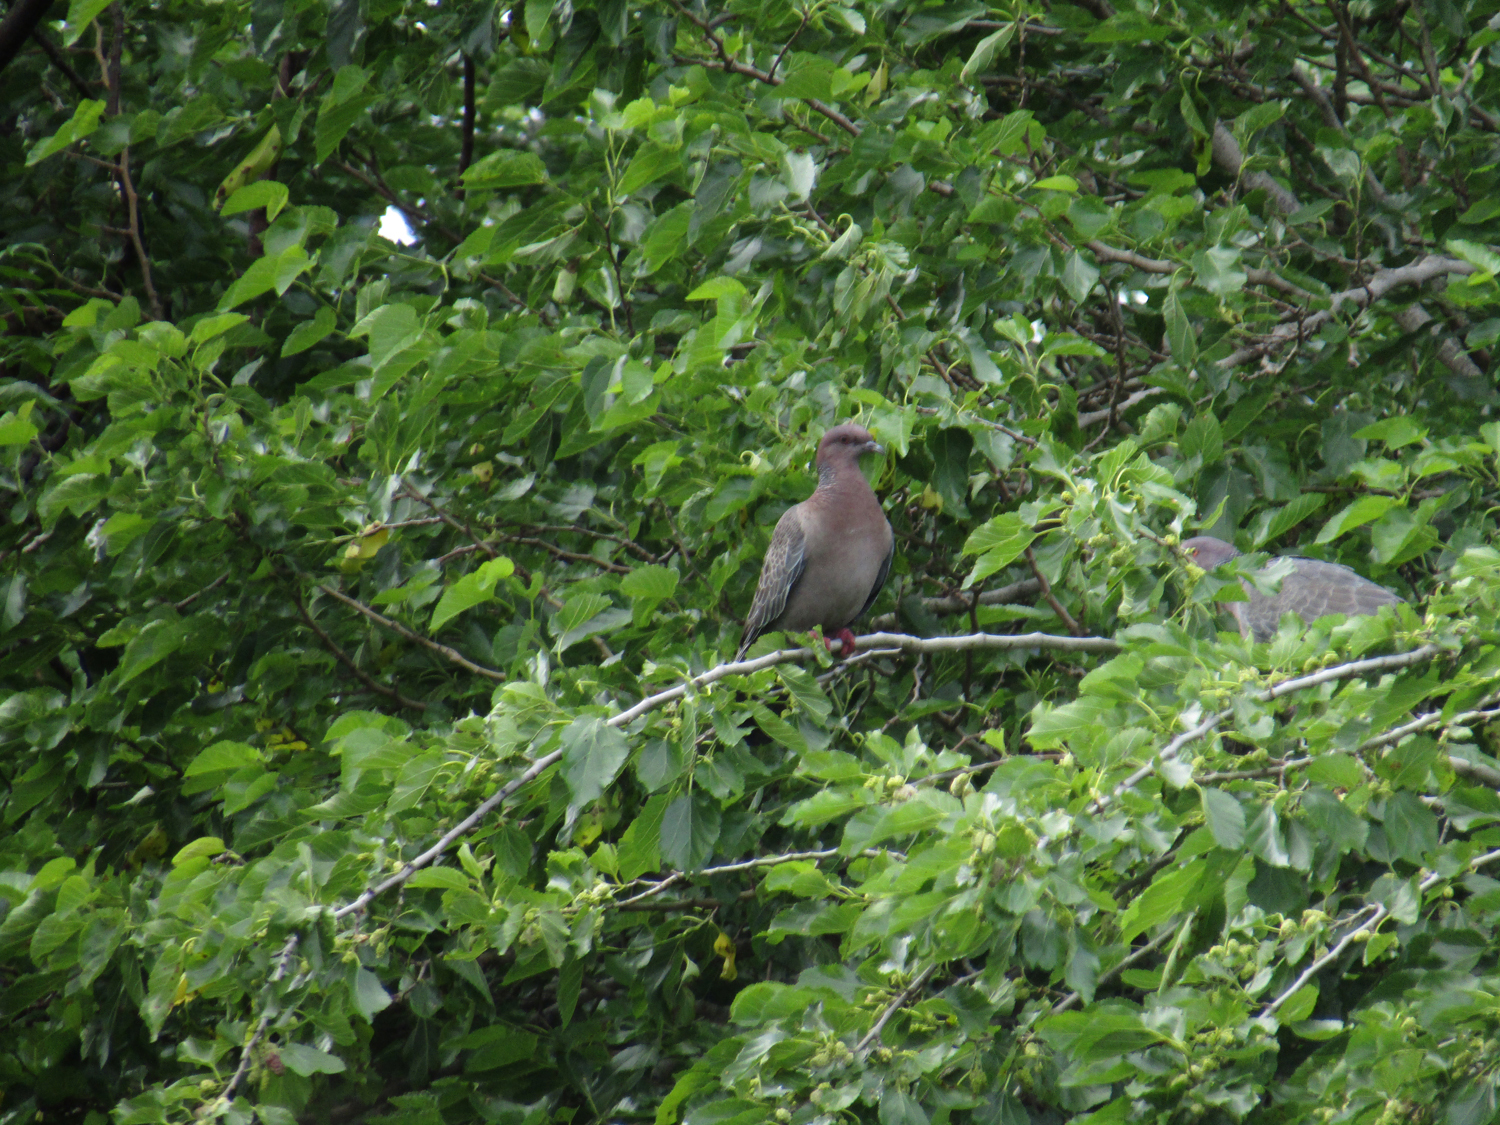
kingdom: Animalia
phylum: Chordata
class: Aves
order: Columbiformes
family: Columbidae
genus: Patagioenas
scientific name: Patagioenas picazuro
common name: Picazuro pigeon
